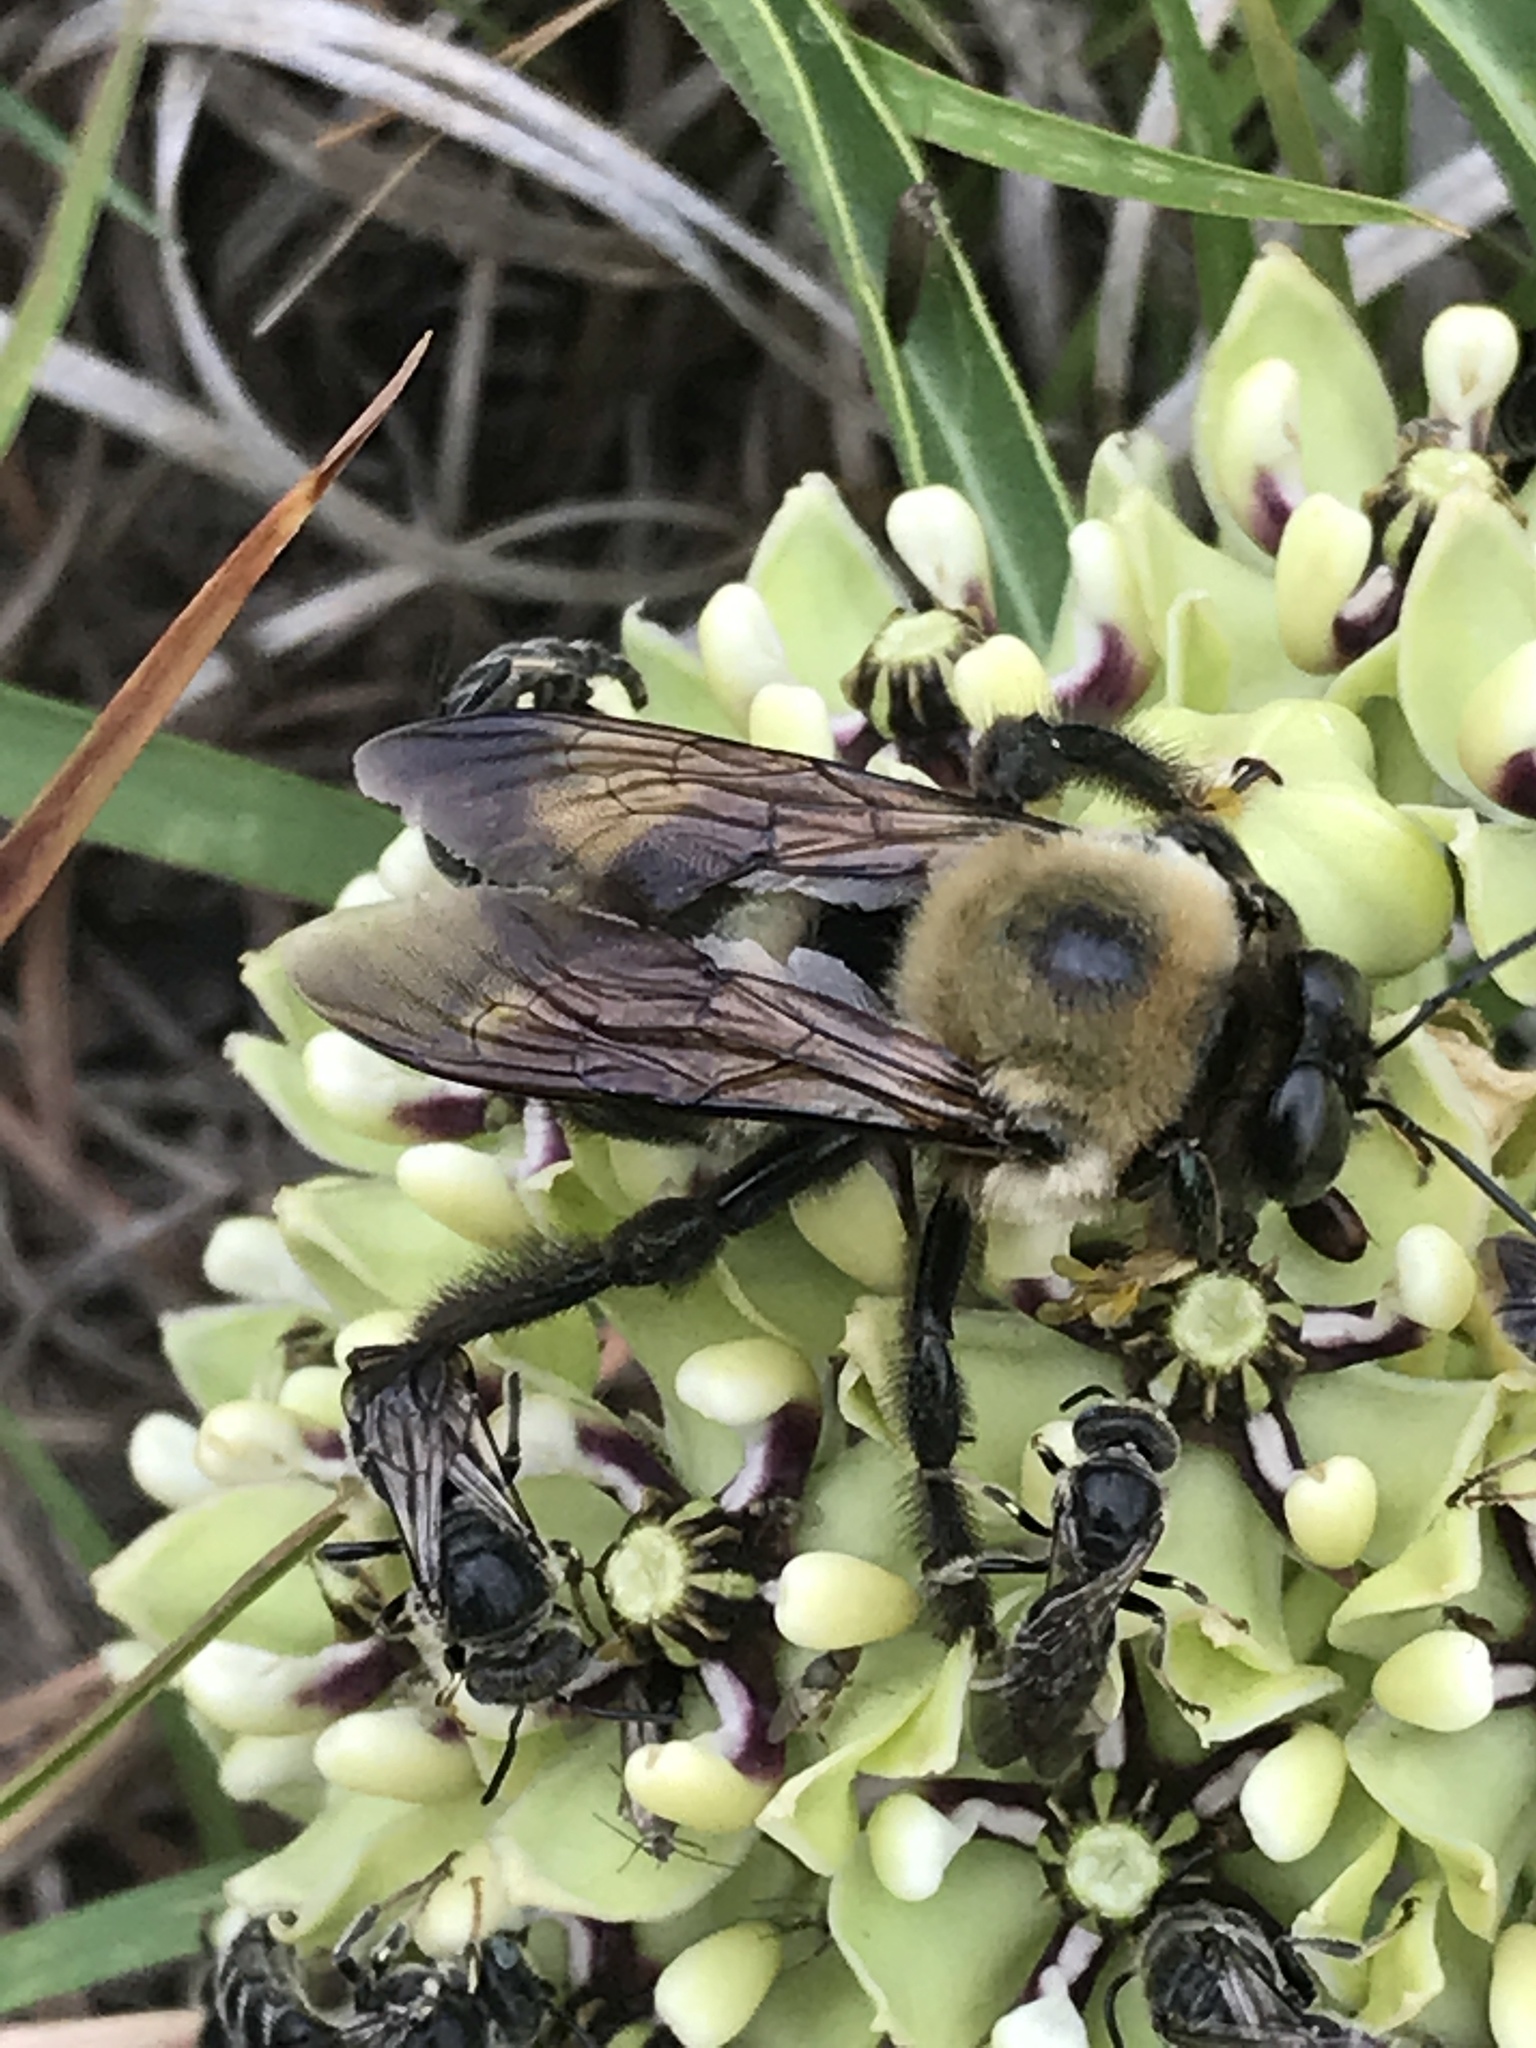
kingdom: Animalia
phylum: Arthropoda
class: Insecta
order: Hymenoptera
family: Apidae
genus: Xylocopa
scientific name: Xylocopa virginica
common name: Carpenter bee
